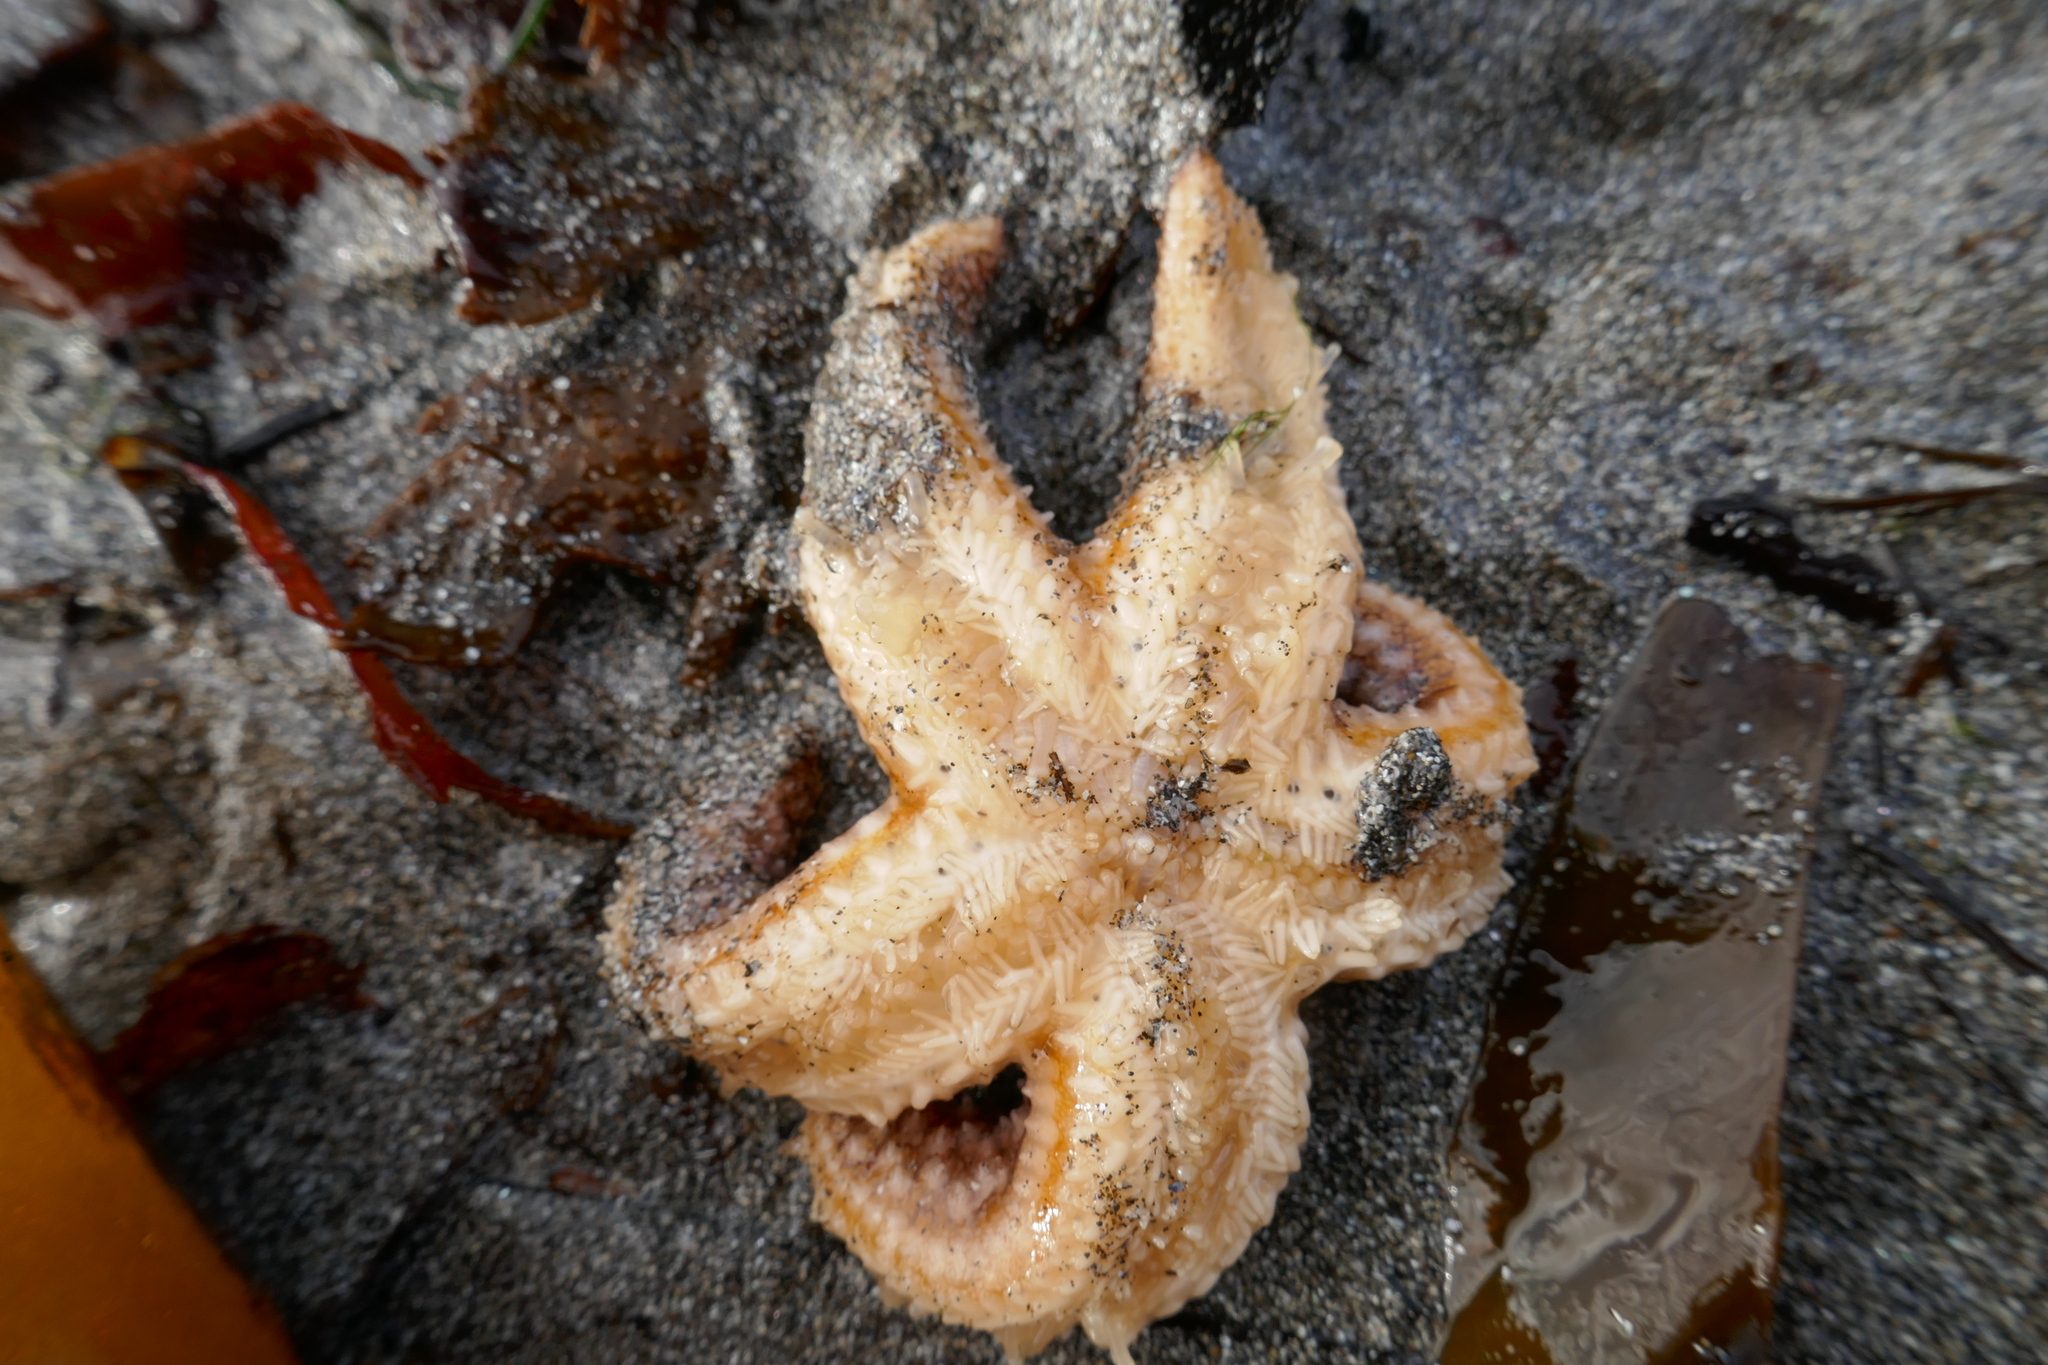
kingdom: Animalia
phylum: Echinodermata
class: Asteroidea
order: Forcipulatida
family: Asteriidae
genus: Asterias
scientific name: Asterias rubens
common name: Common starfish
